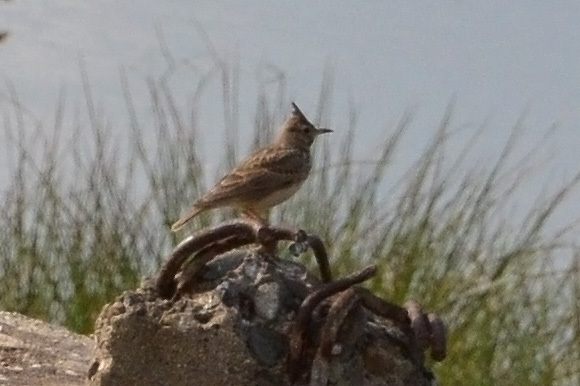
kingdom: Animalia
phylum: Chordata
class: Aves
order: Passeriformes
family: Alaudidae
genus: Galerida
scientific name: Galerida cristata
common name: Crested lark
